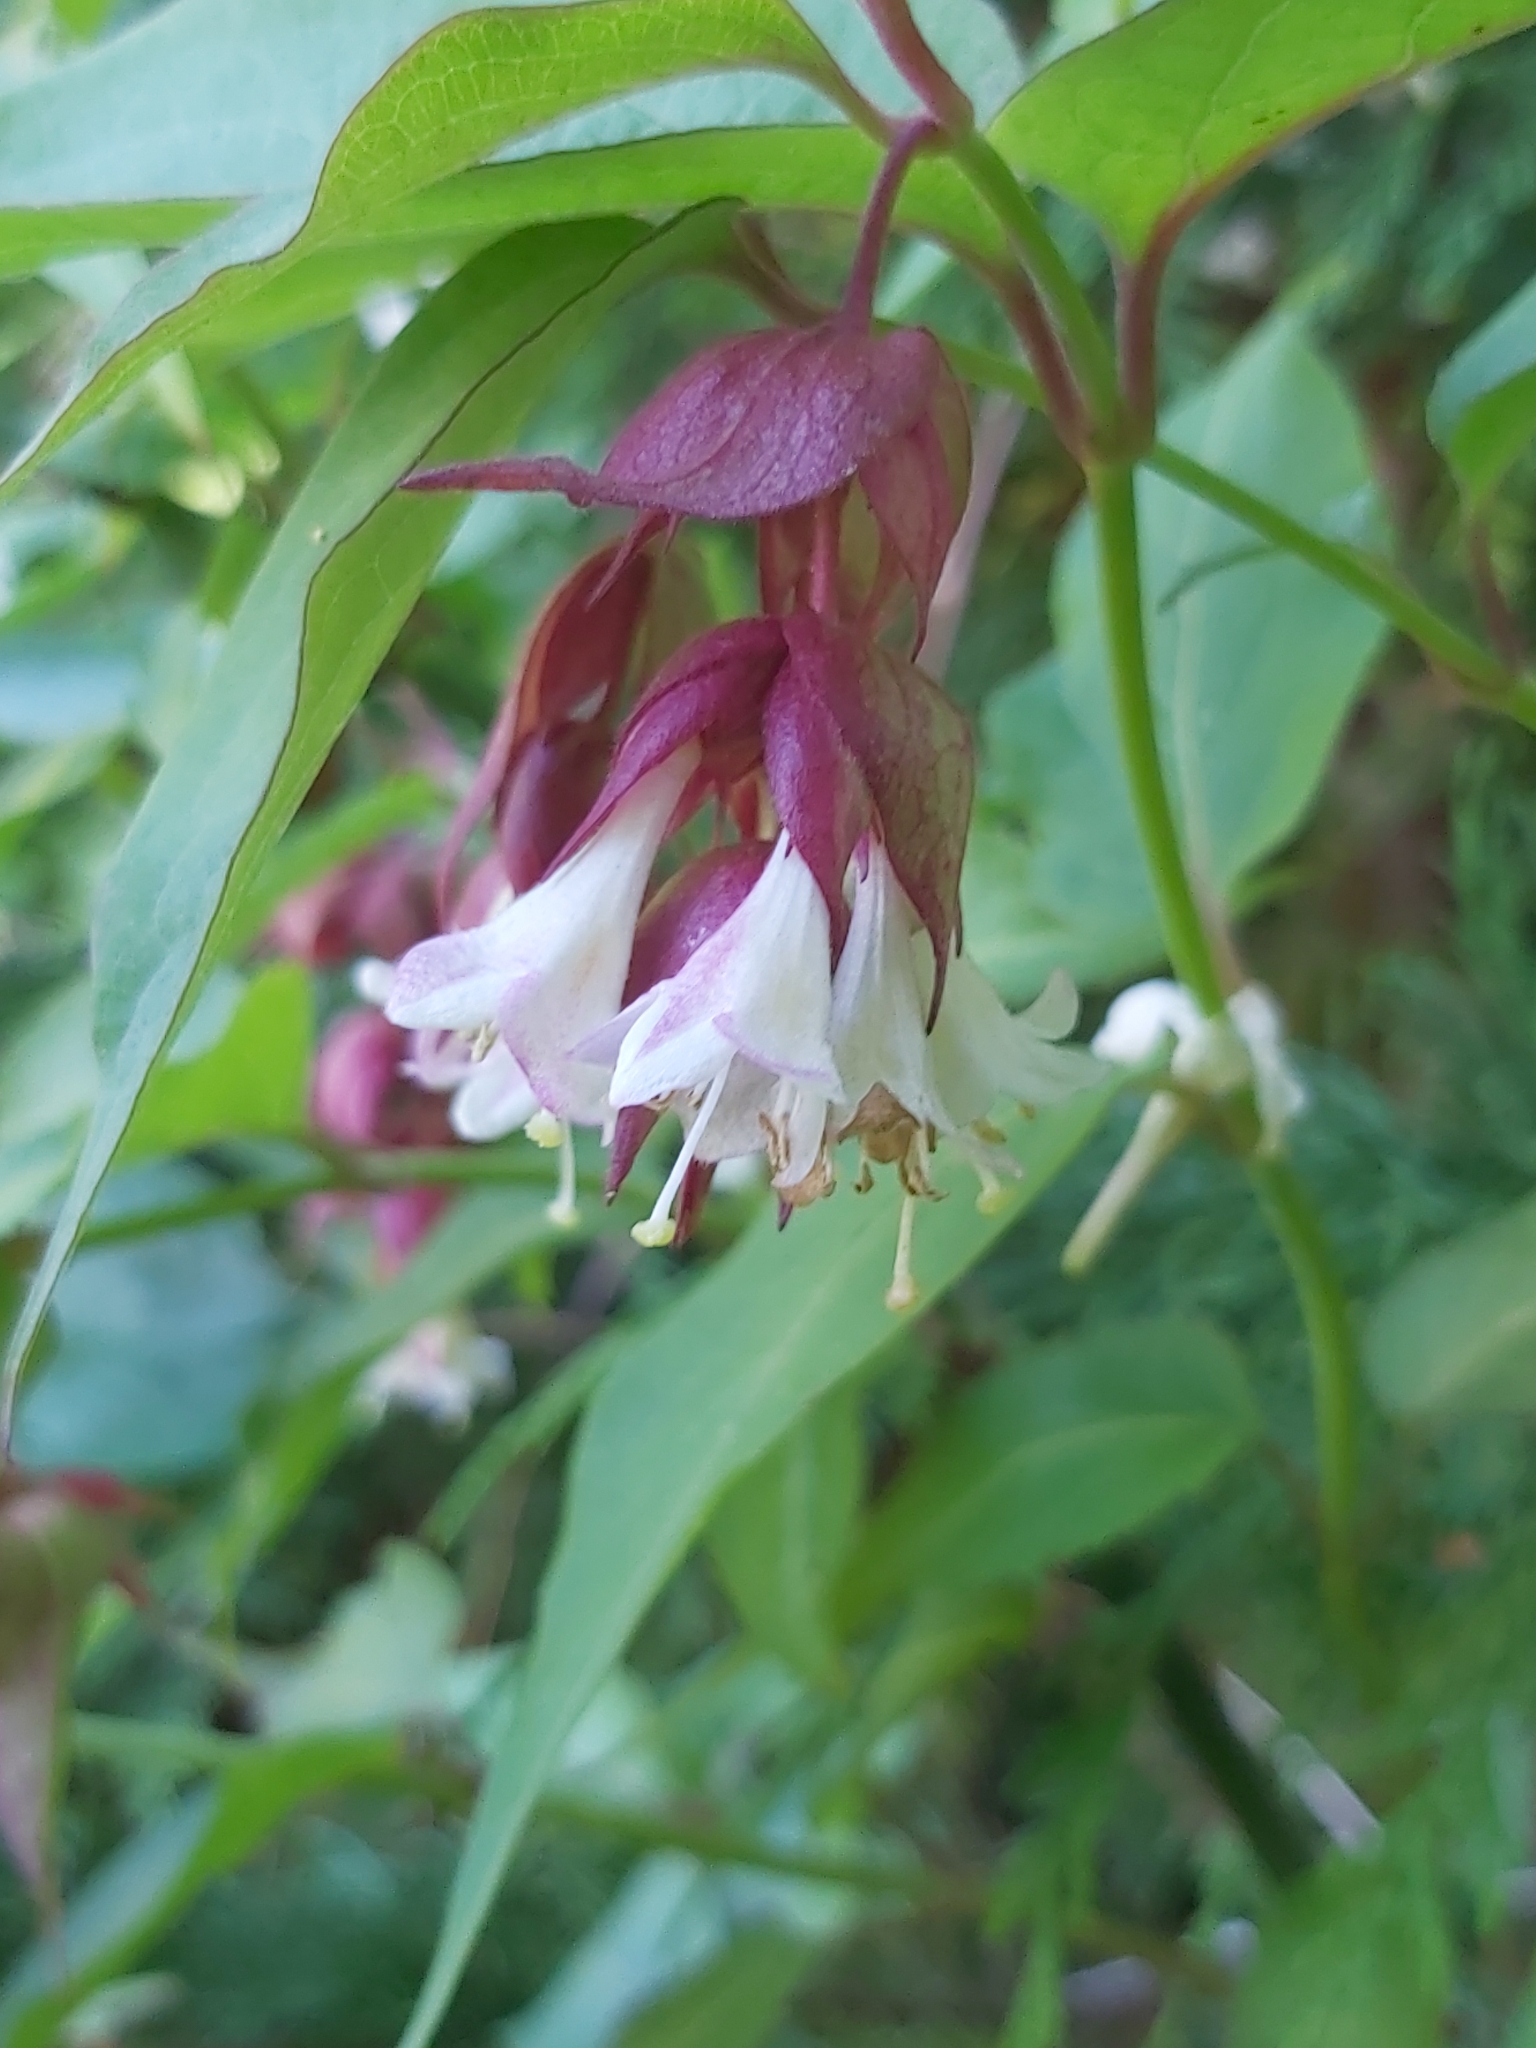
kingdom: Plantae
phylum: Tracheophyta
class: Magnoliopsida
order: Dipsacales
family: Caprifoliaceae
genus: Leycesteria
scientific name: Leycesteria formosa
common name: Himalayan honeysuckle
